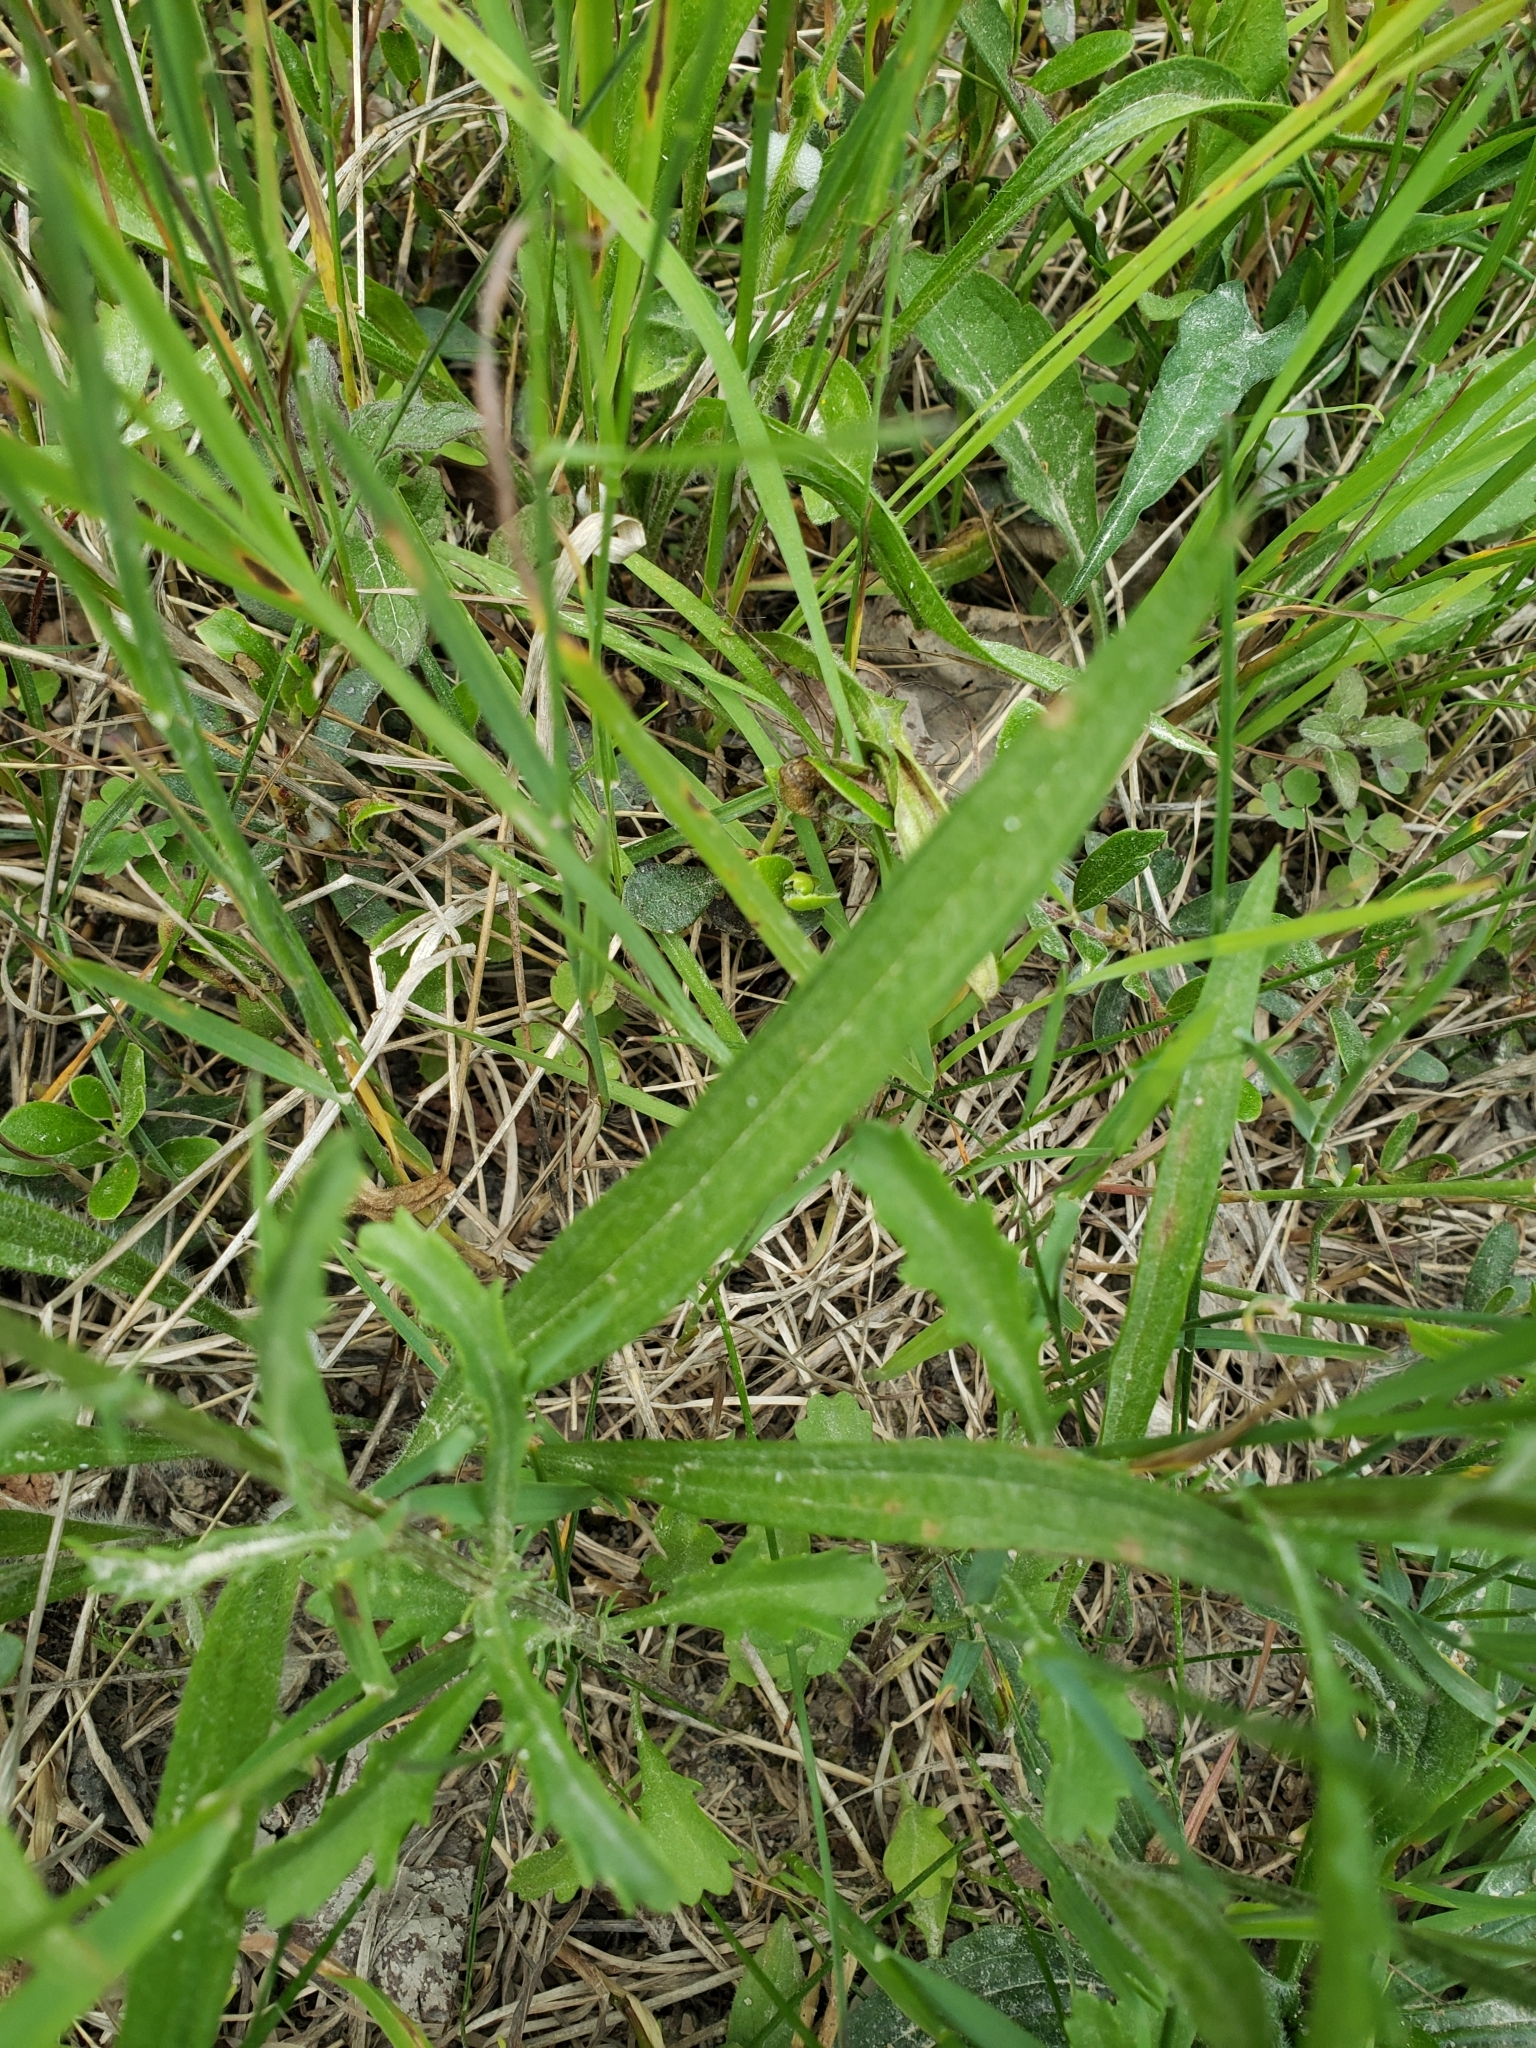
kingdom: Plantae
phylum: Tracheophyta
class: Magnoliopsida
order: Asterales
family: Asteraceae
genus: Leucanthemum
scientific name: Leucanthemum vulgare
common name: Oxeye daisy
